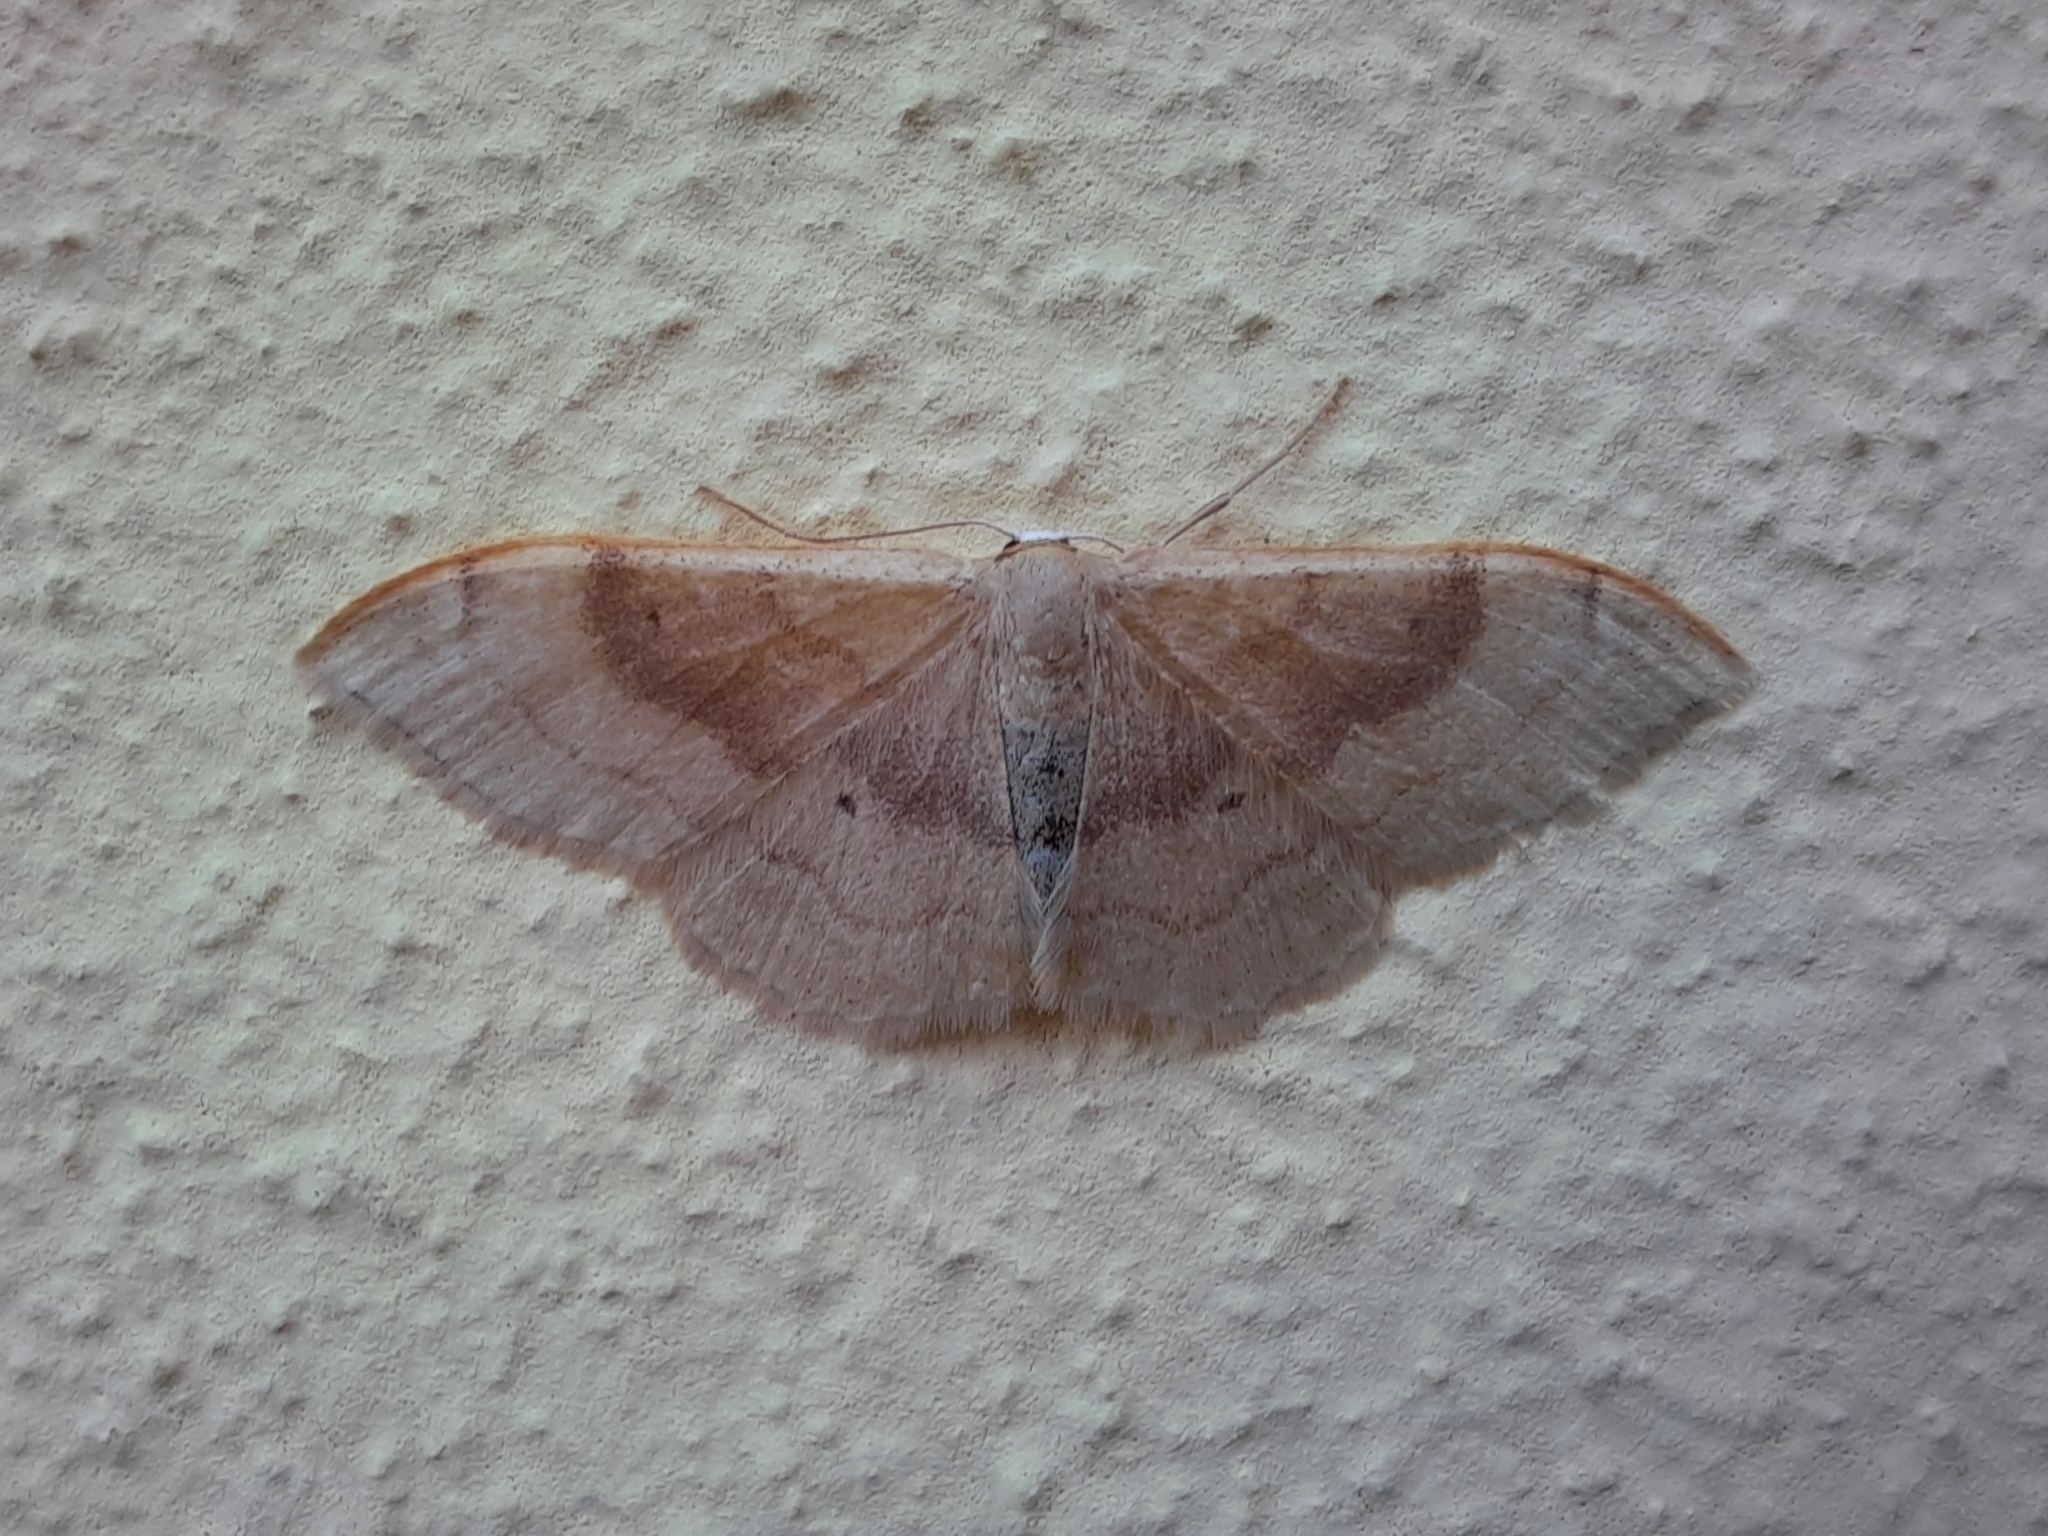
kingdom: Animalia
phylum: Arthropoda
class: Insecta
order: Lepidoptera
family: Geometridae
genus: Idaea
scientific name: Idaea degeneraria
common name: Portland ribbon wave
